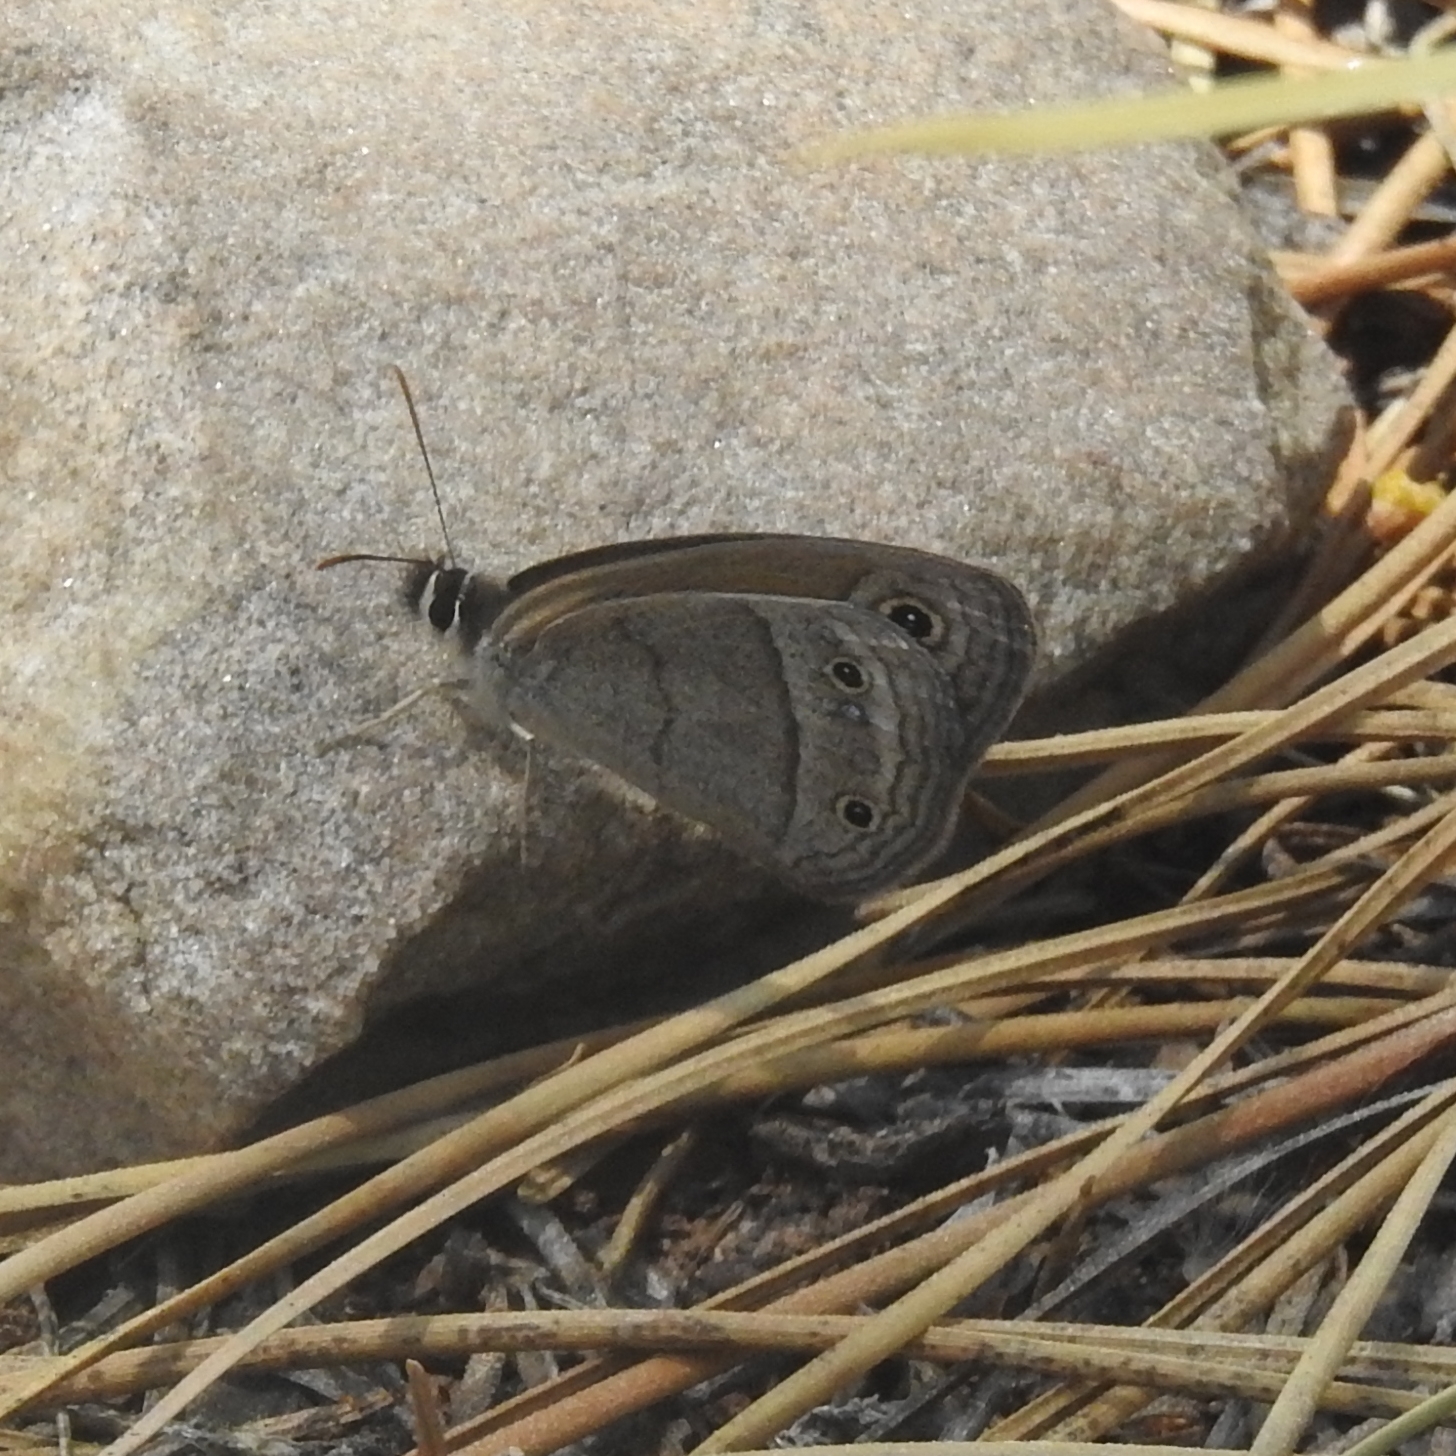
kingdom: Animalia
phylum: Arthropoda
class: Insecta
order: Lepidoptera
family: Nymphalidae
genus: Euptychia
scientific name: Euptychia
